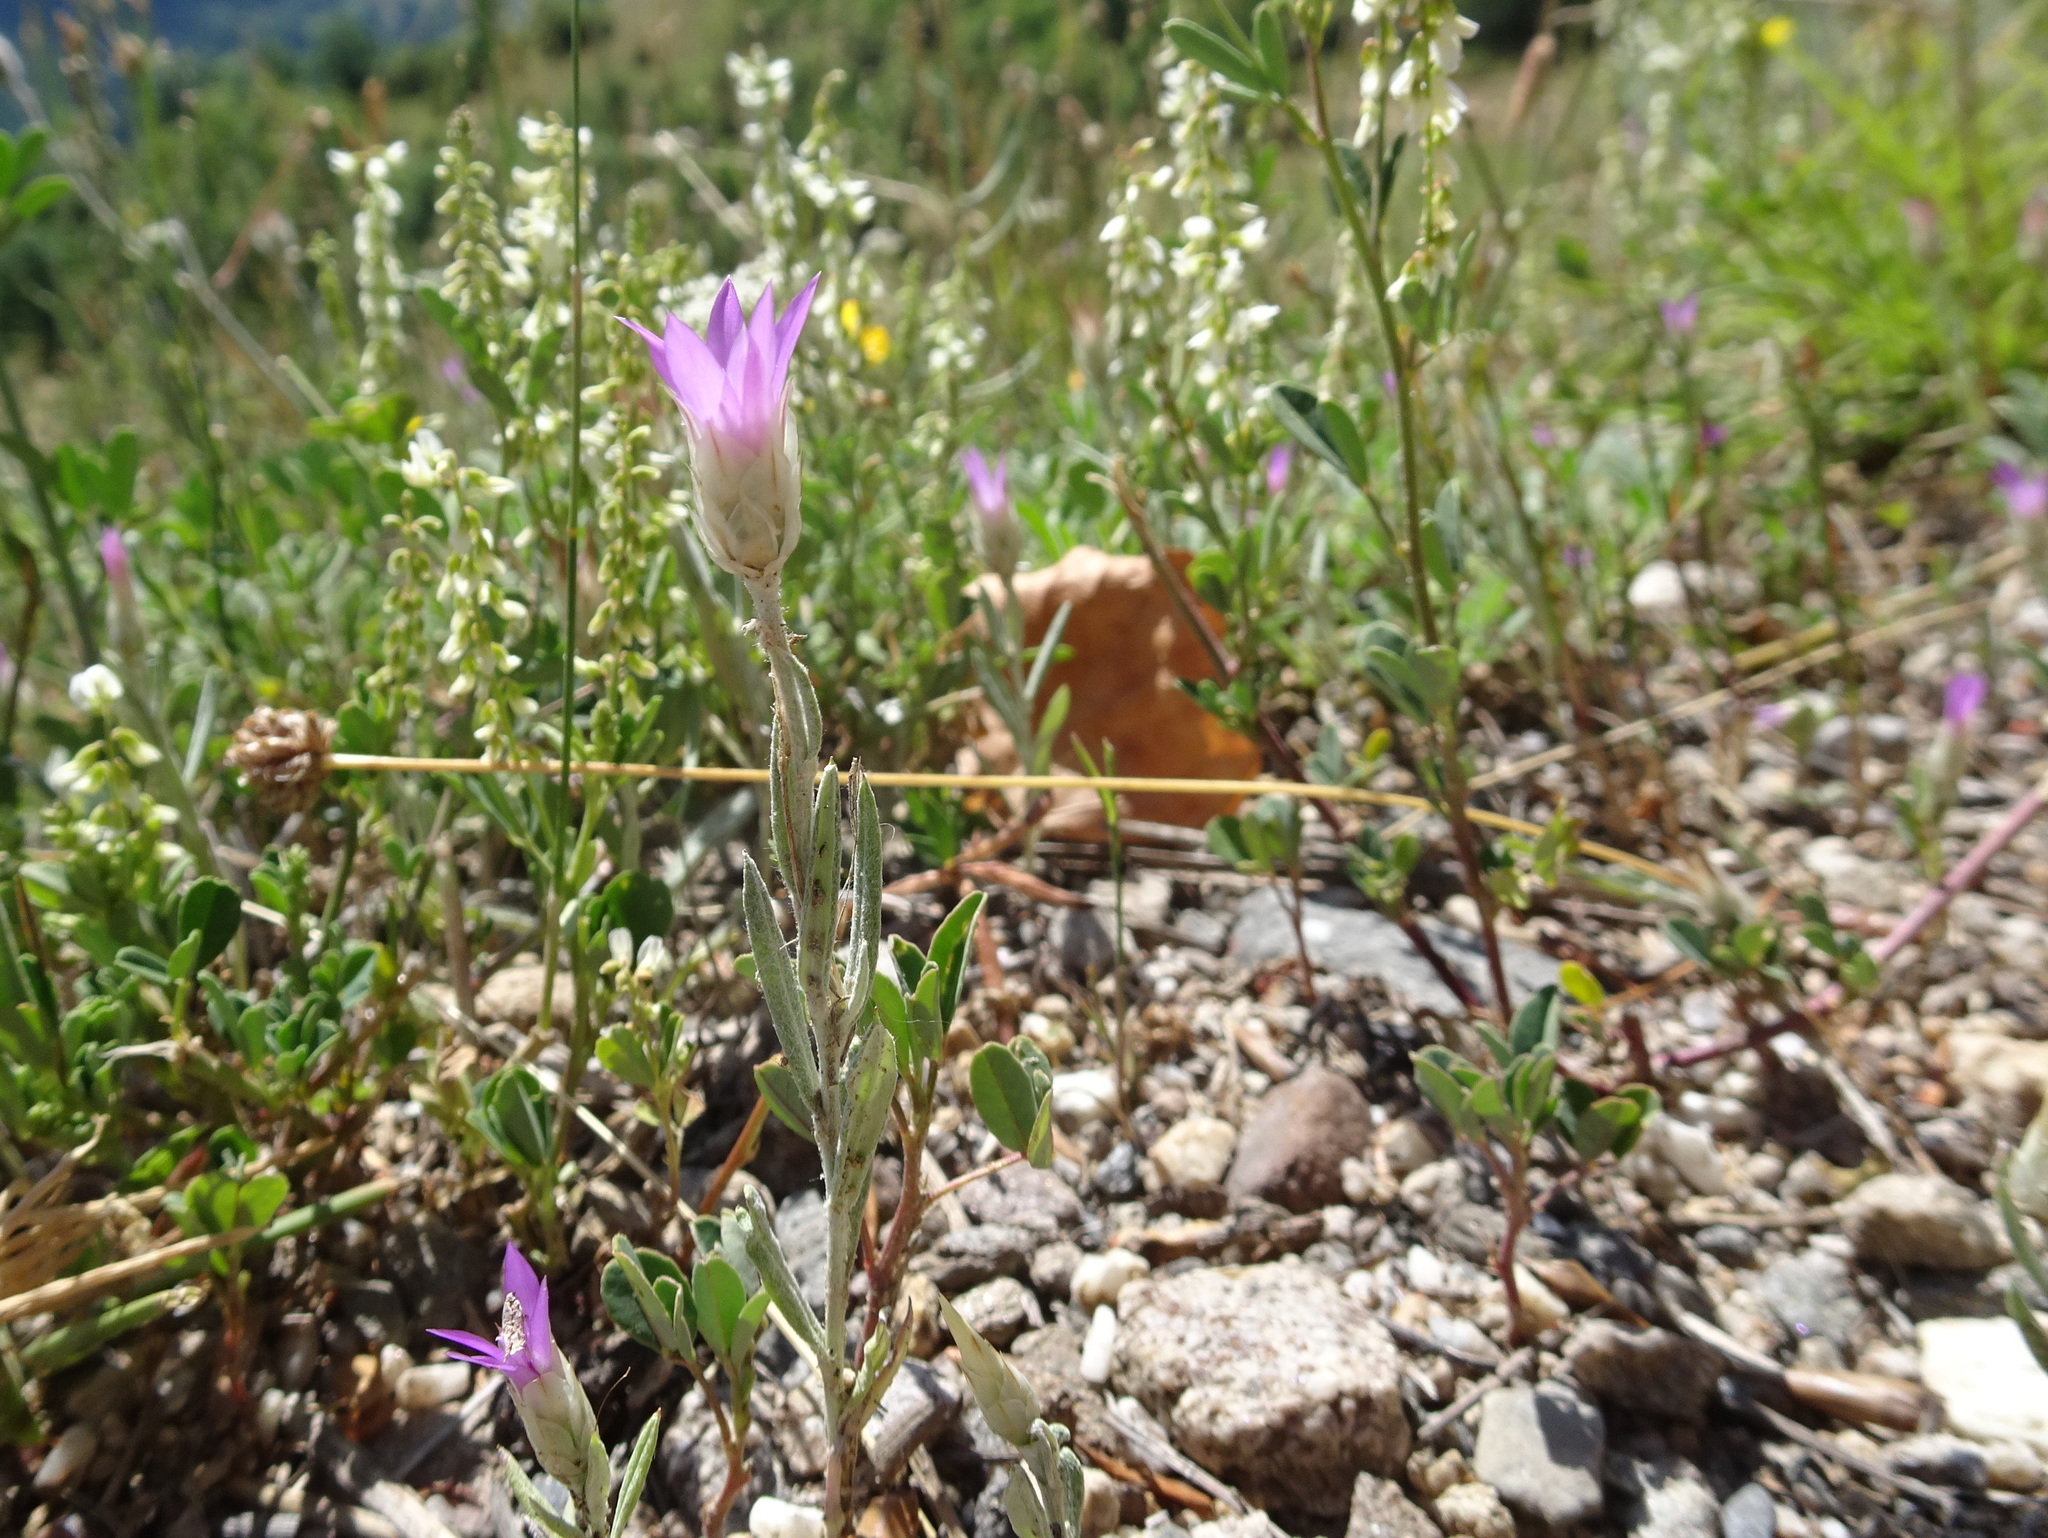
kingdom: Plantae
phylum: Tracheophyta
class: Magnoliopsida
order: Asterales
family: Asteraceae
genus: Xeranthemum
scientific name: Xeranthemum inapertum
